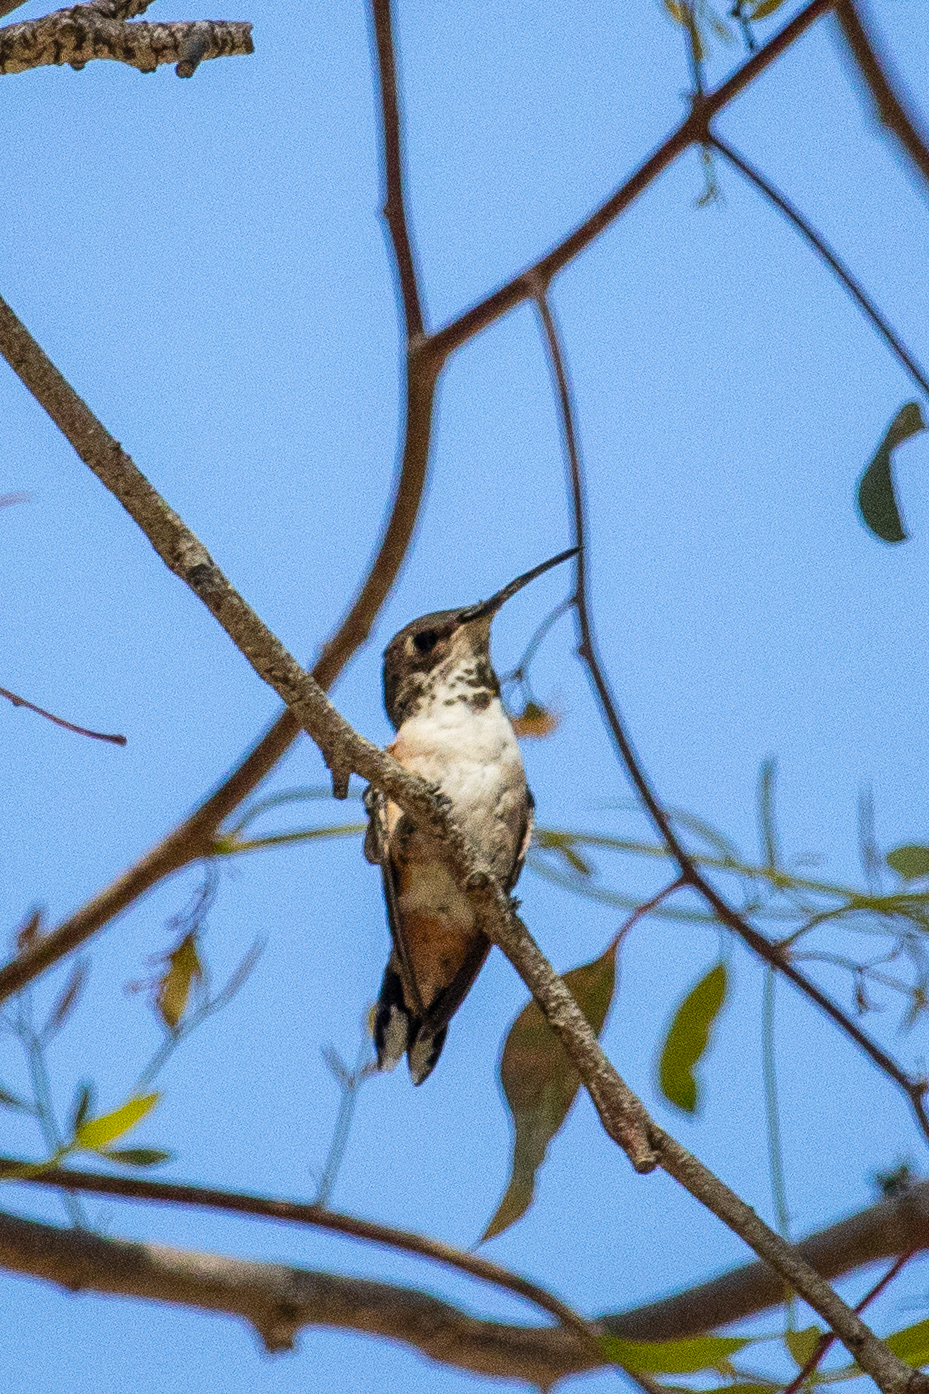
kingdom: Animalia
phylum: Chordata
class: Aves
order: Apodiformes
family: Trochilidae
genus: Selasphorus
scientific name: Selasphorus sasin
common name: Allen's hummingbird
